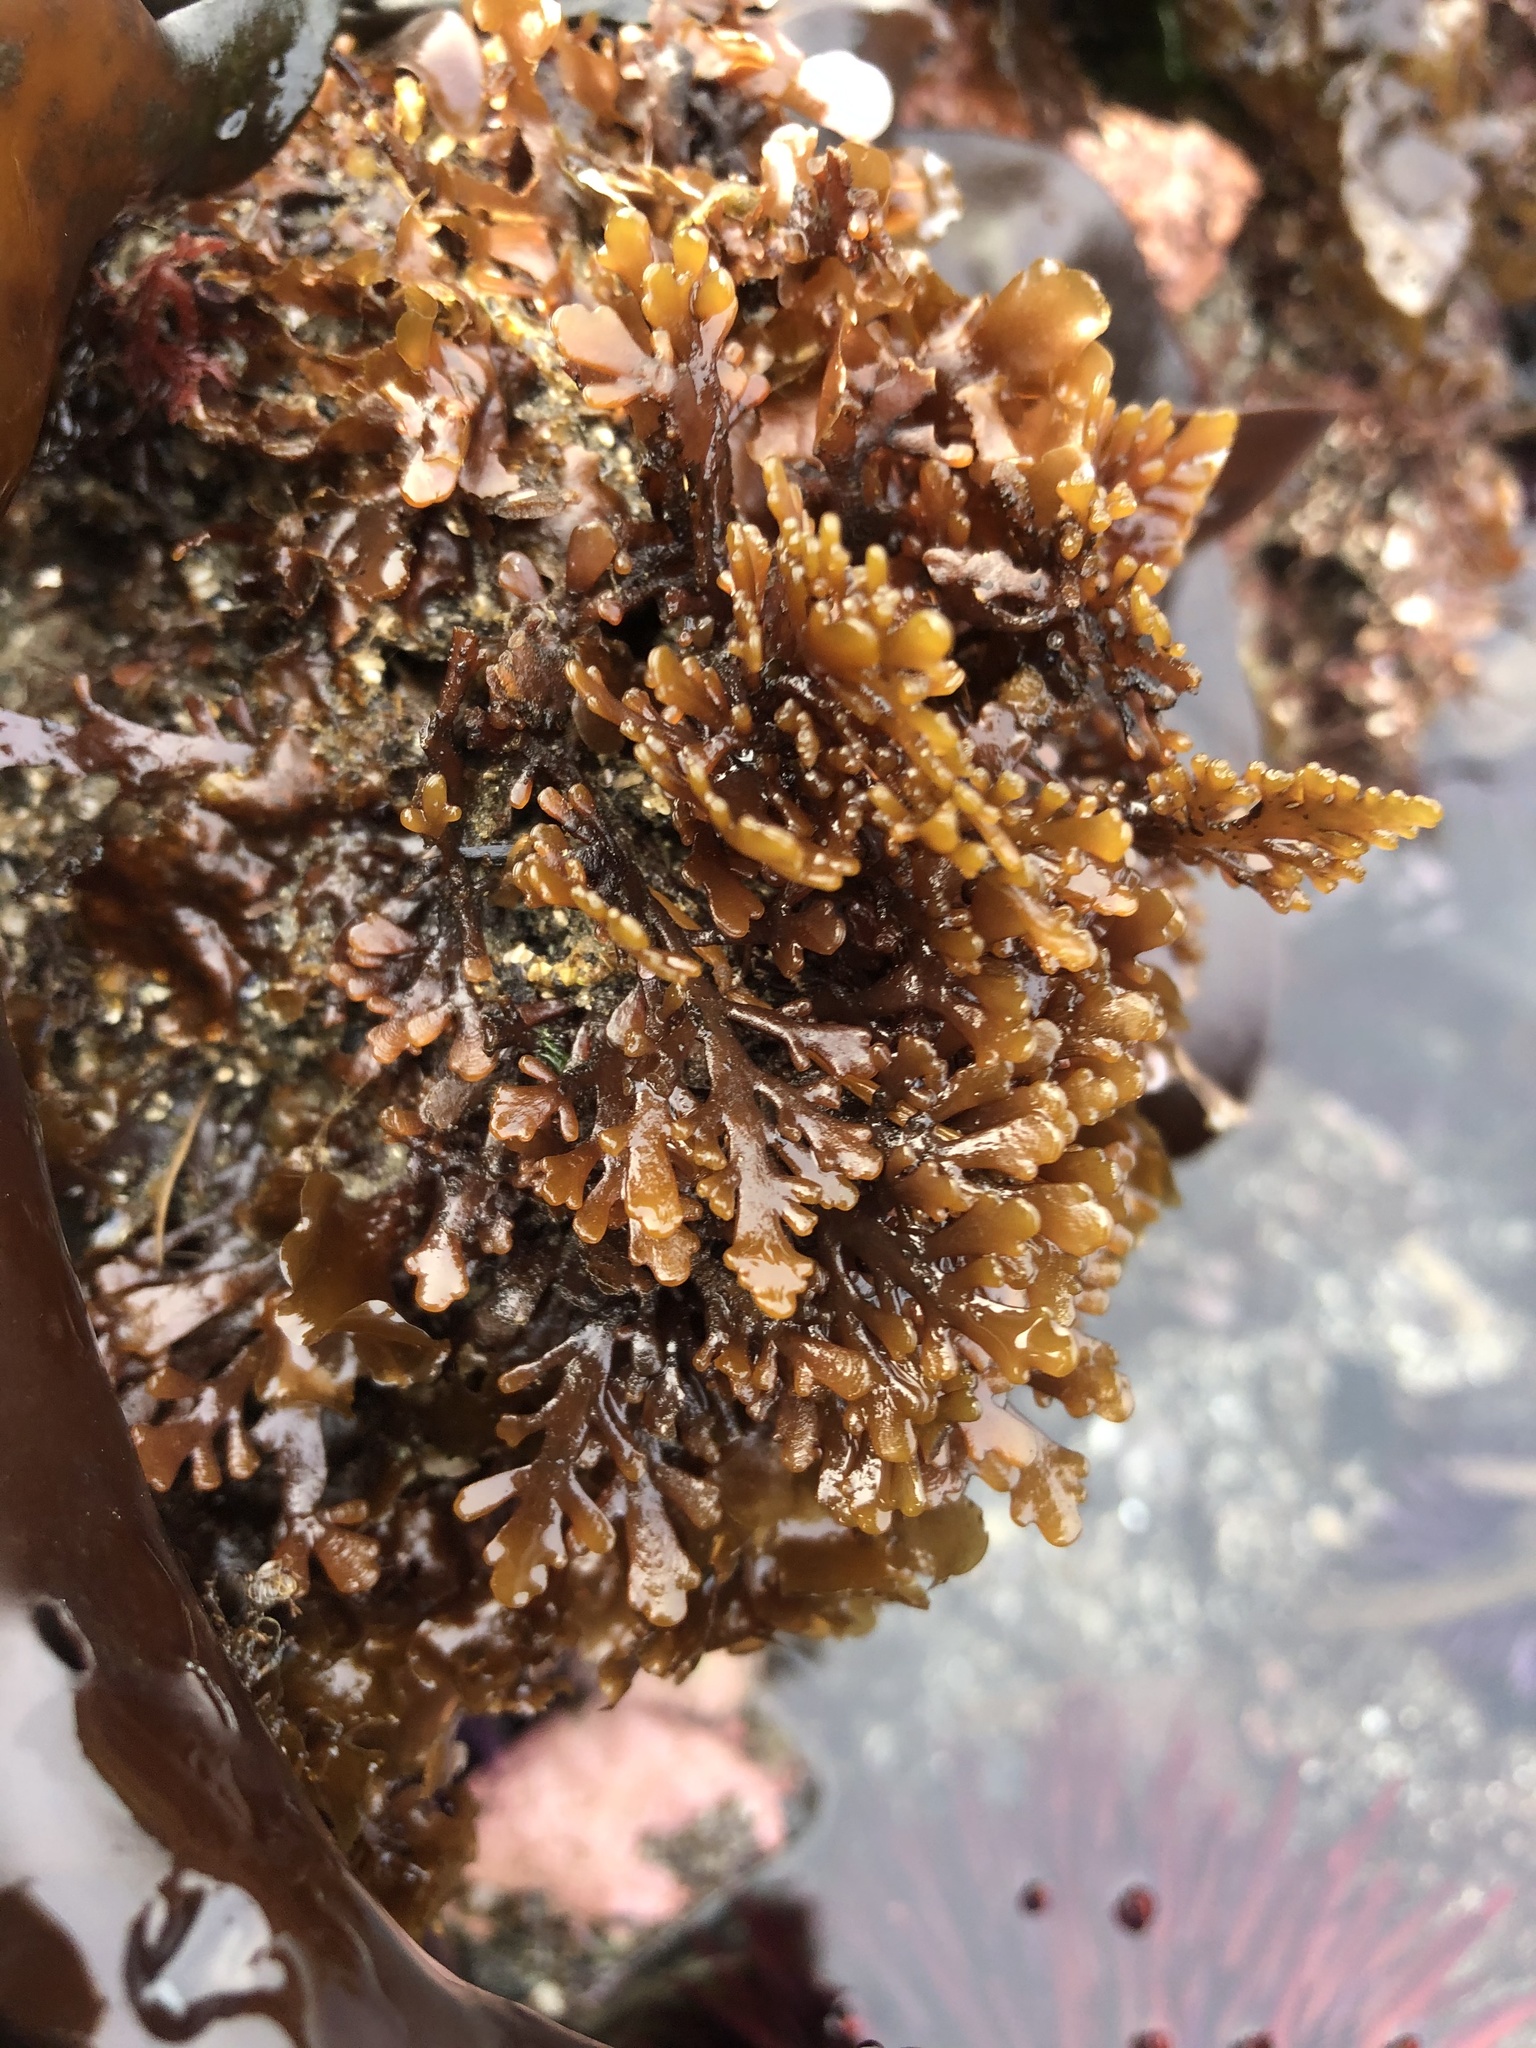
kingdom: Plantae
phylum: Rhodophyta
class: Florideophyceae
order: Ceramiales
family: Rhodomelaceae
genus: Osmundea
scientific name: Osmundea spectabilis
